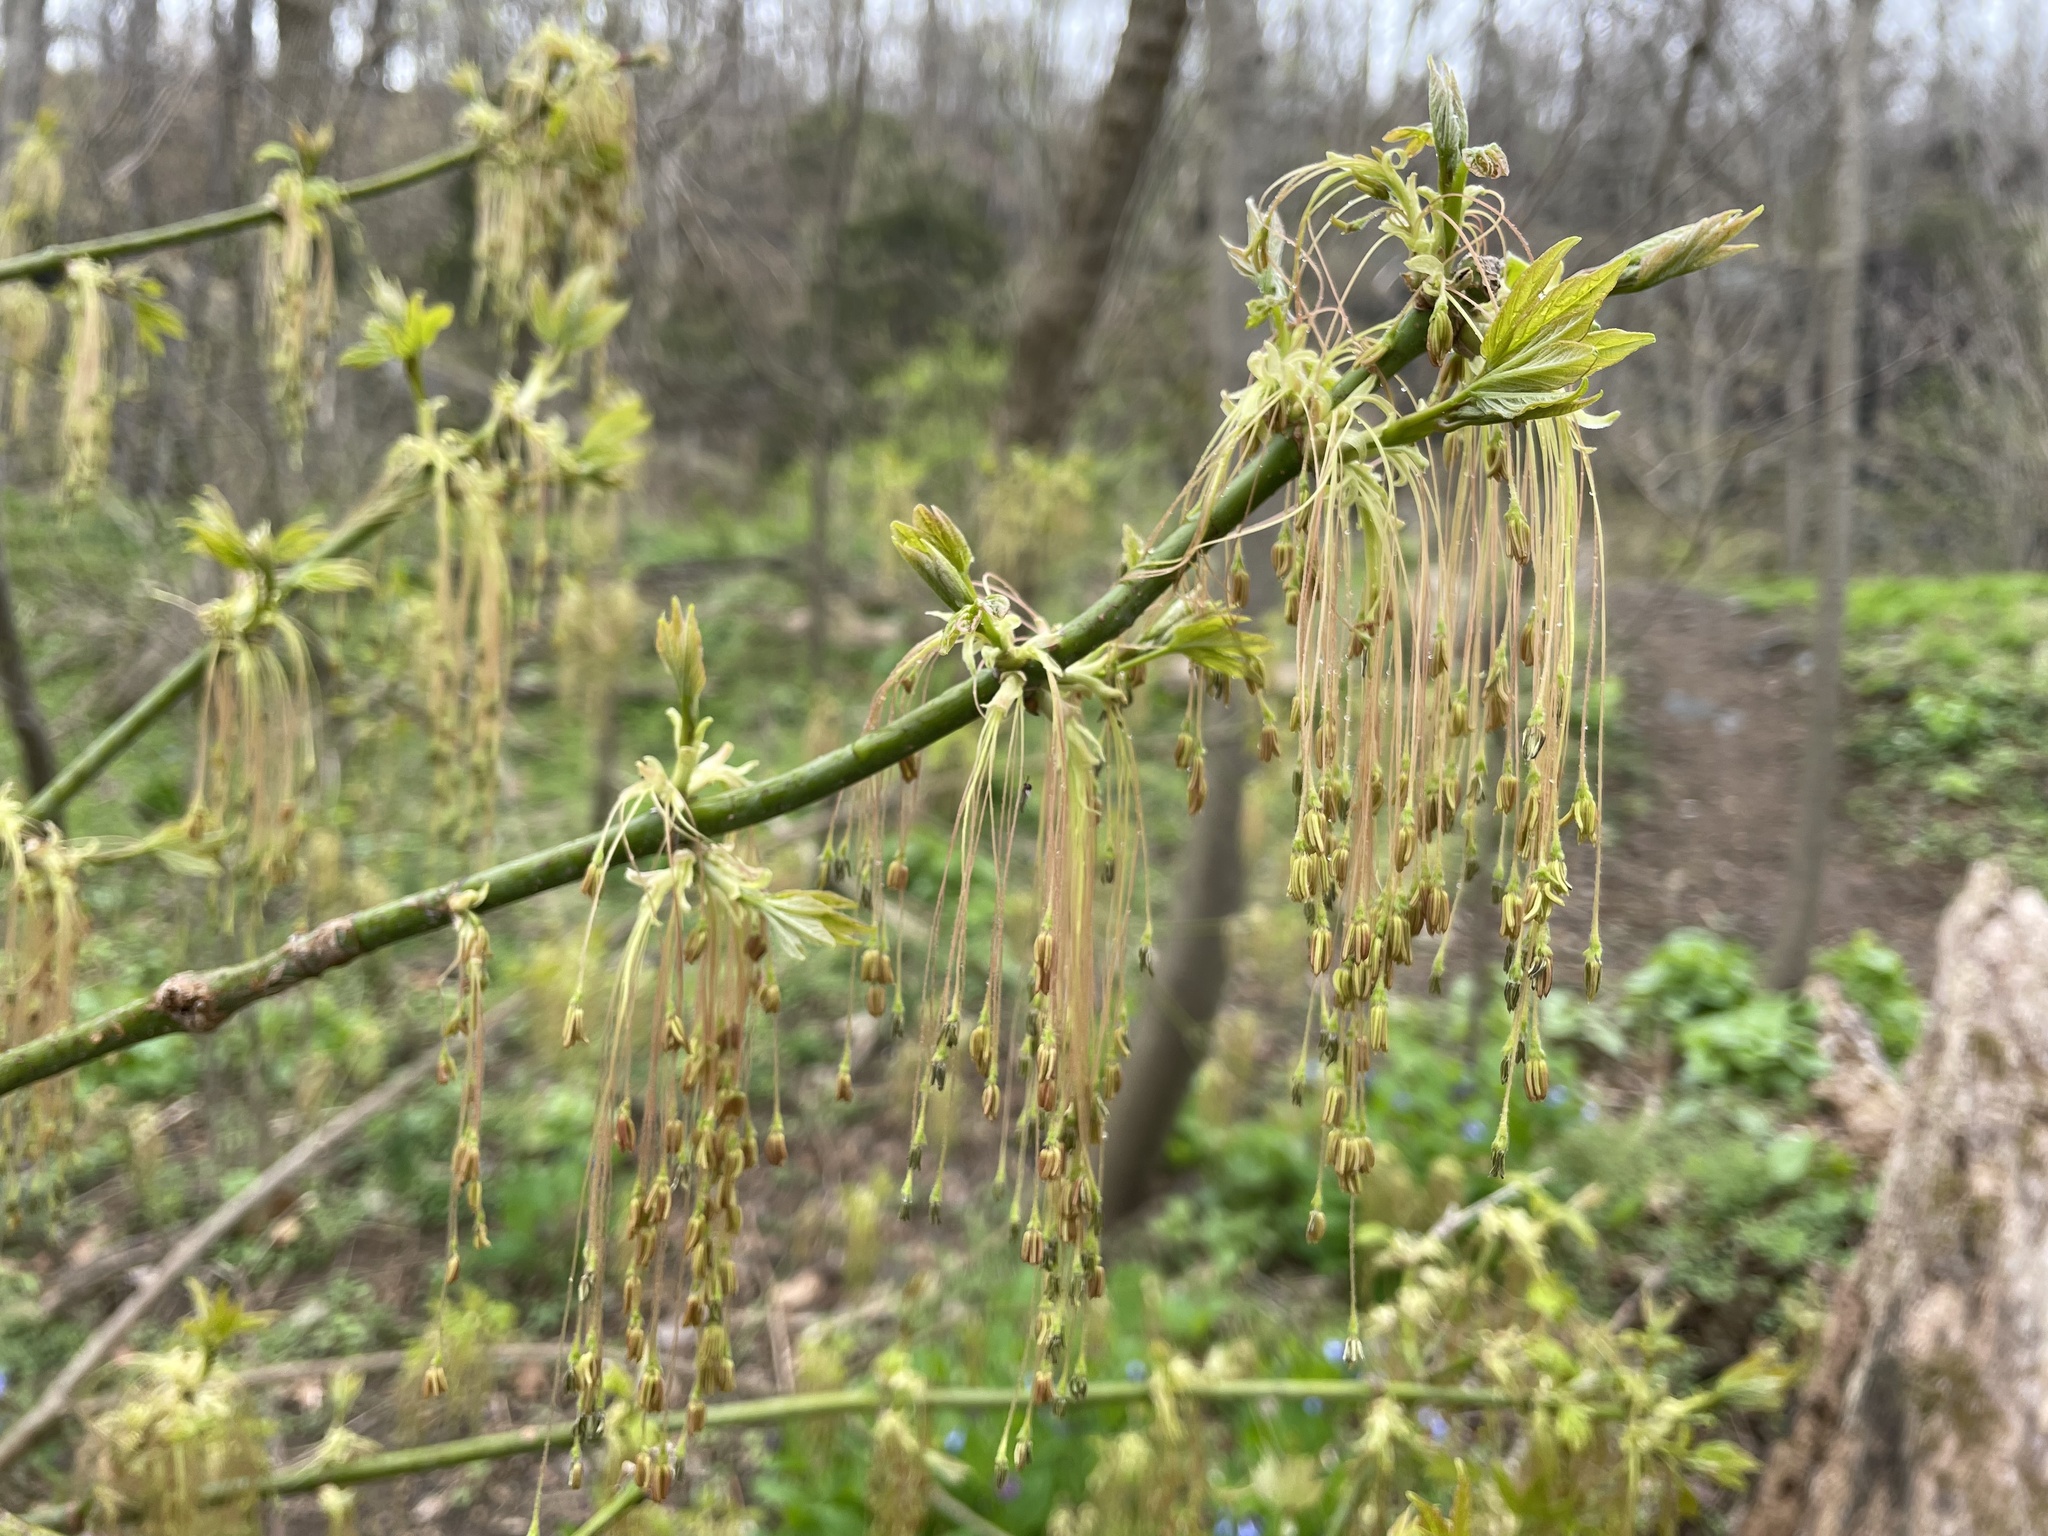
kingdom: Plantae
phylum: Tracheophyta
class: Magnoliopsida
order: Sapindales
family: Sapindaceae
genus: Acer
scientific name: Acer negundo
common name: Ashleaf maple
